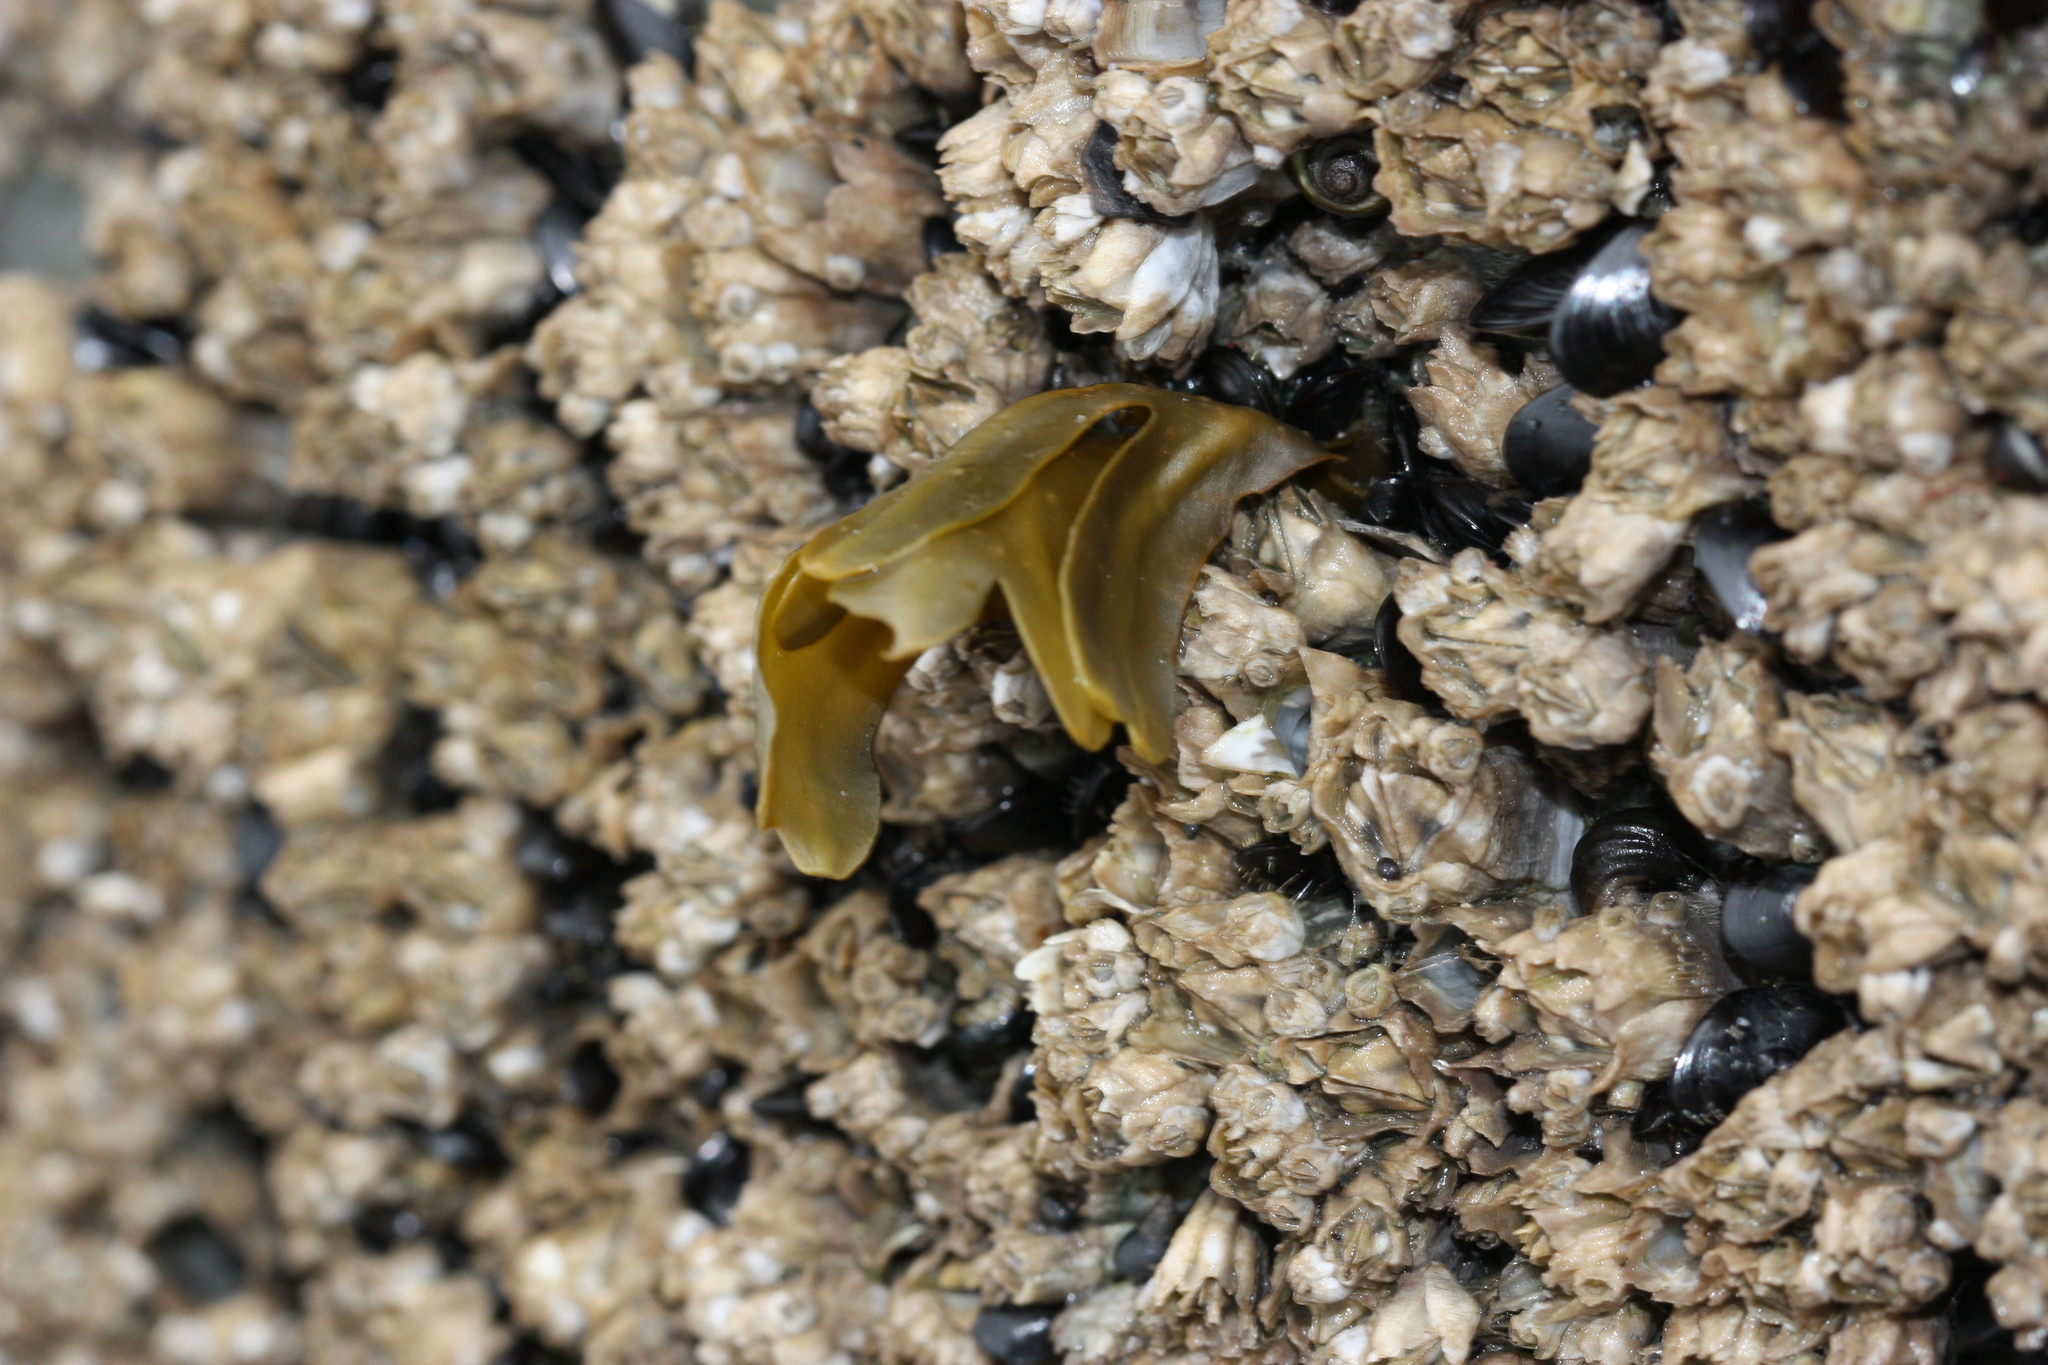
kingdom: Chromista
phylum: Ochrophyta
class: Phaeophyceae
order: Fucales
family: Fucaceae
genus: Fucus
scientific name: Fucus distichus
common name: Rockweed
